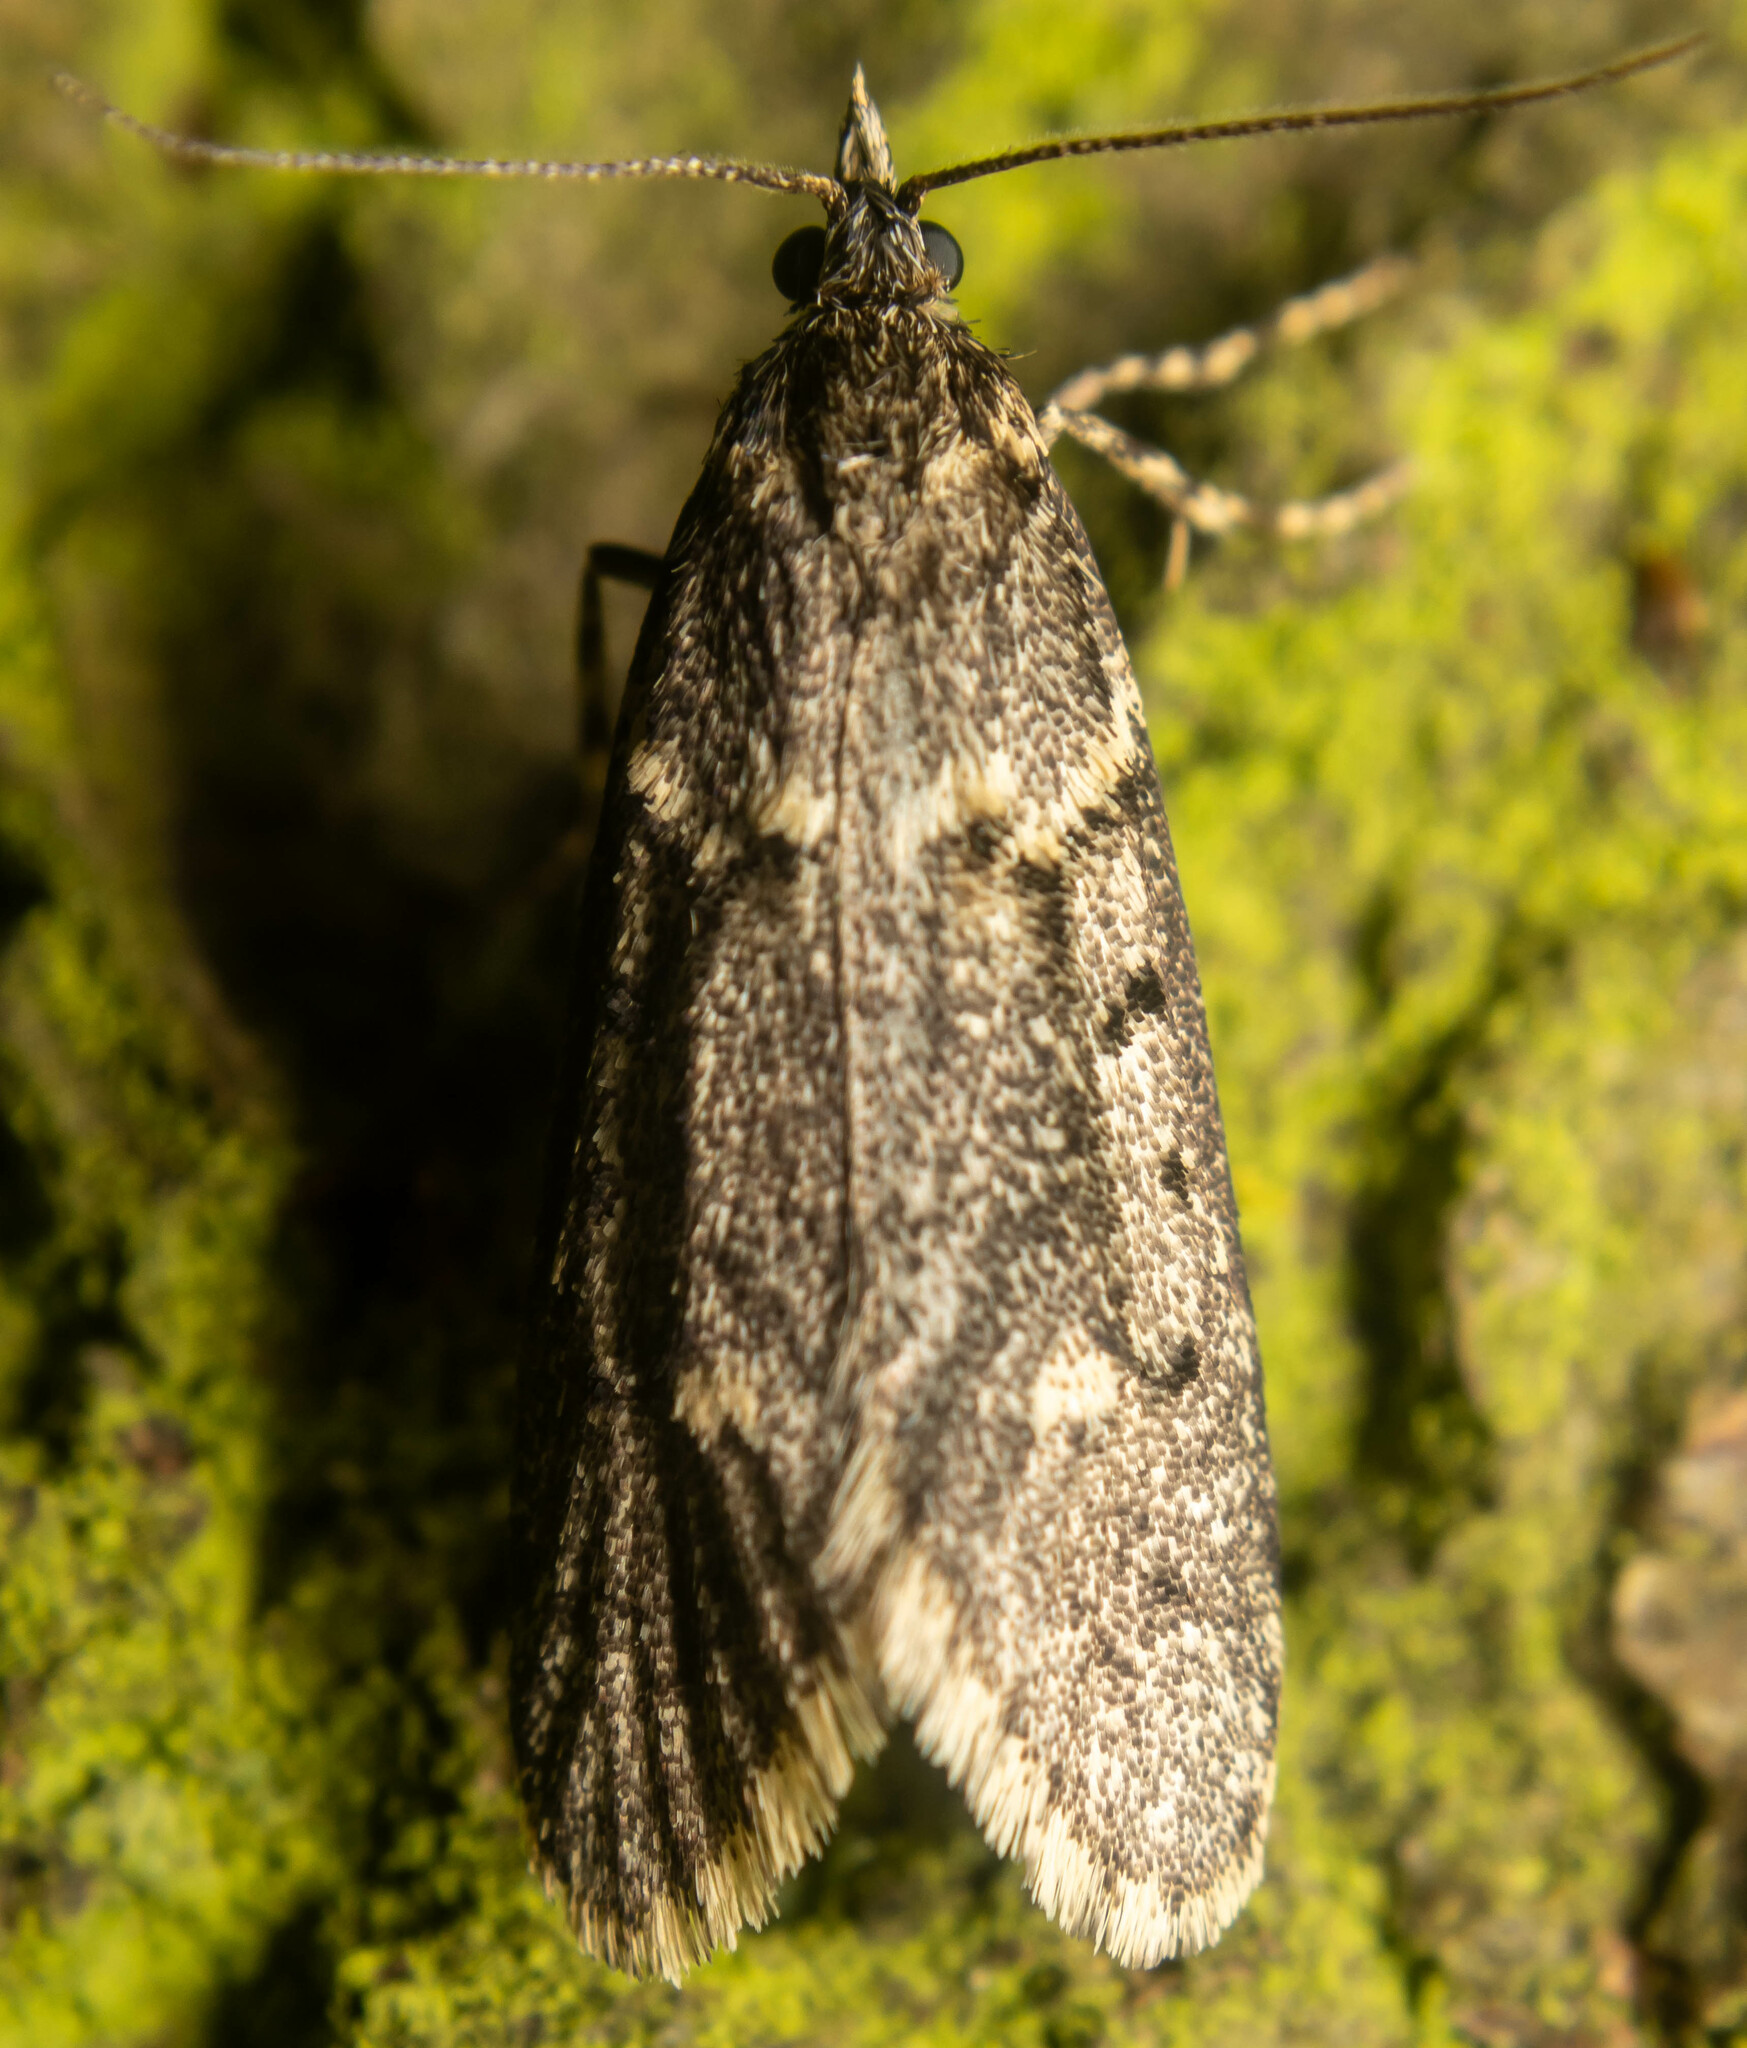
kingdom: Animalia
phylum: Arthropoda
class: Insecta
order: Lepidoptera
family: Lypusidae
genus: Diurnea
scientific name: Diurnea fagella
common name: March tubic
